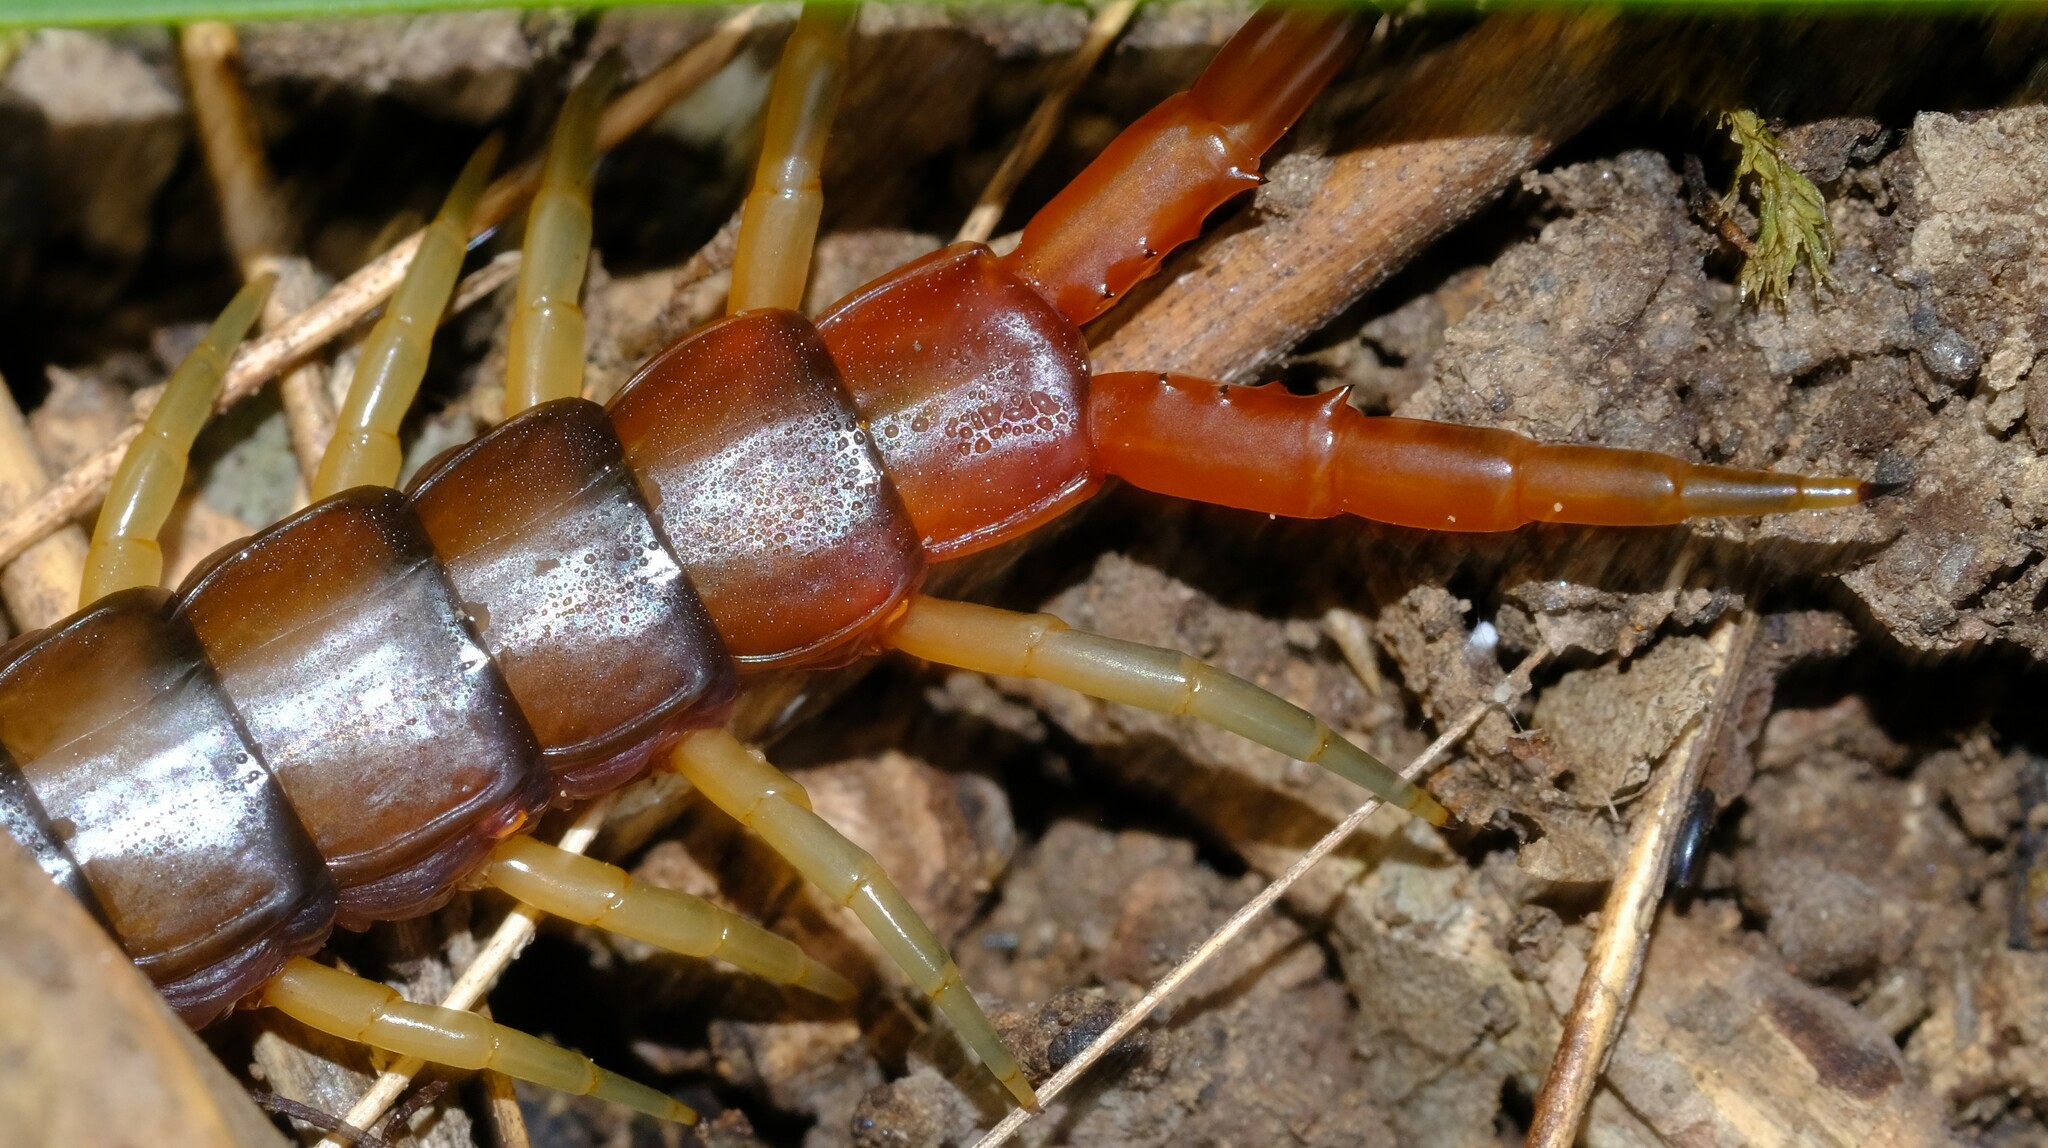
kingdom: Animalia
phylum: Arthropoda
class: Chilopoda
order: Scolopendromorpha
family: Scolopendridae
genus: Cormocephalus
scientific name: Cormocephalus aurantiipes
